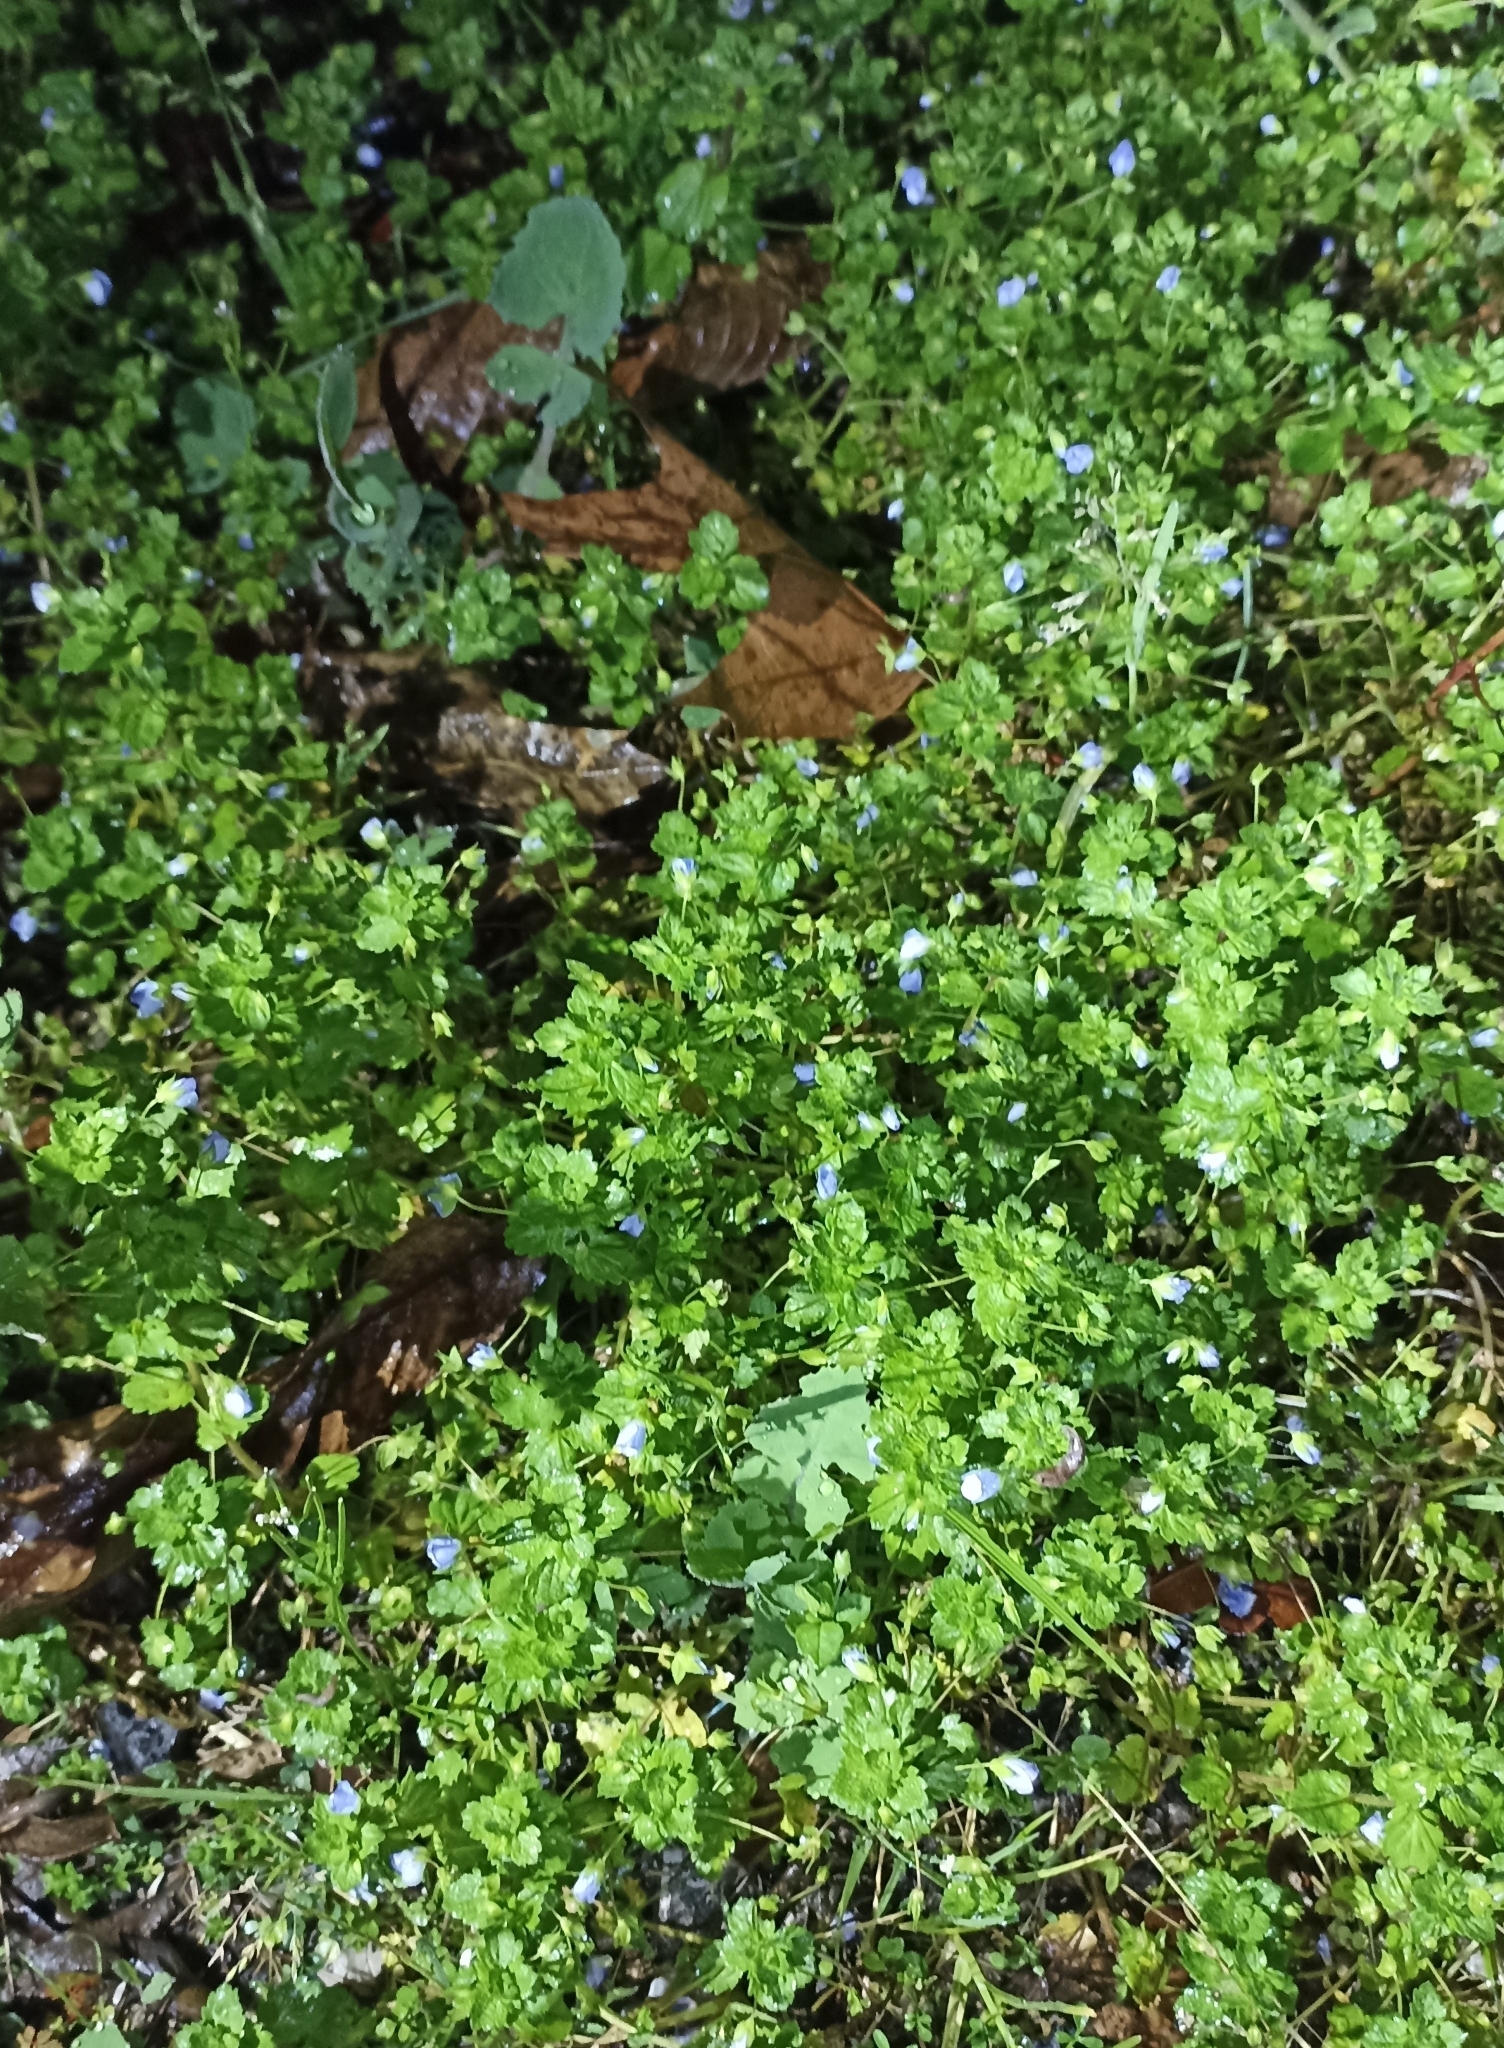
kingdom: Plantae
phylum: Tracheophyta
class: Magnoliopsida
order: Lamiales
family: Plantaginaceae
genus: Veronica
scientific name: Veronica persica
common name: Common field-speedwell
